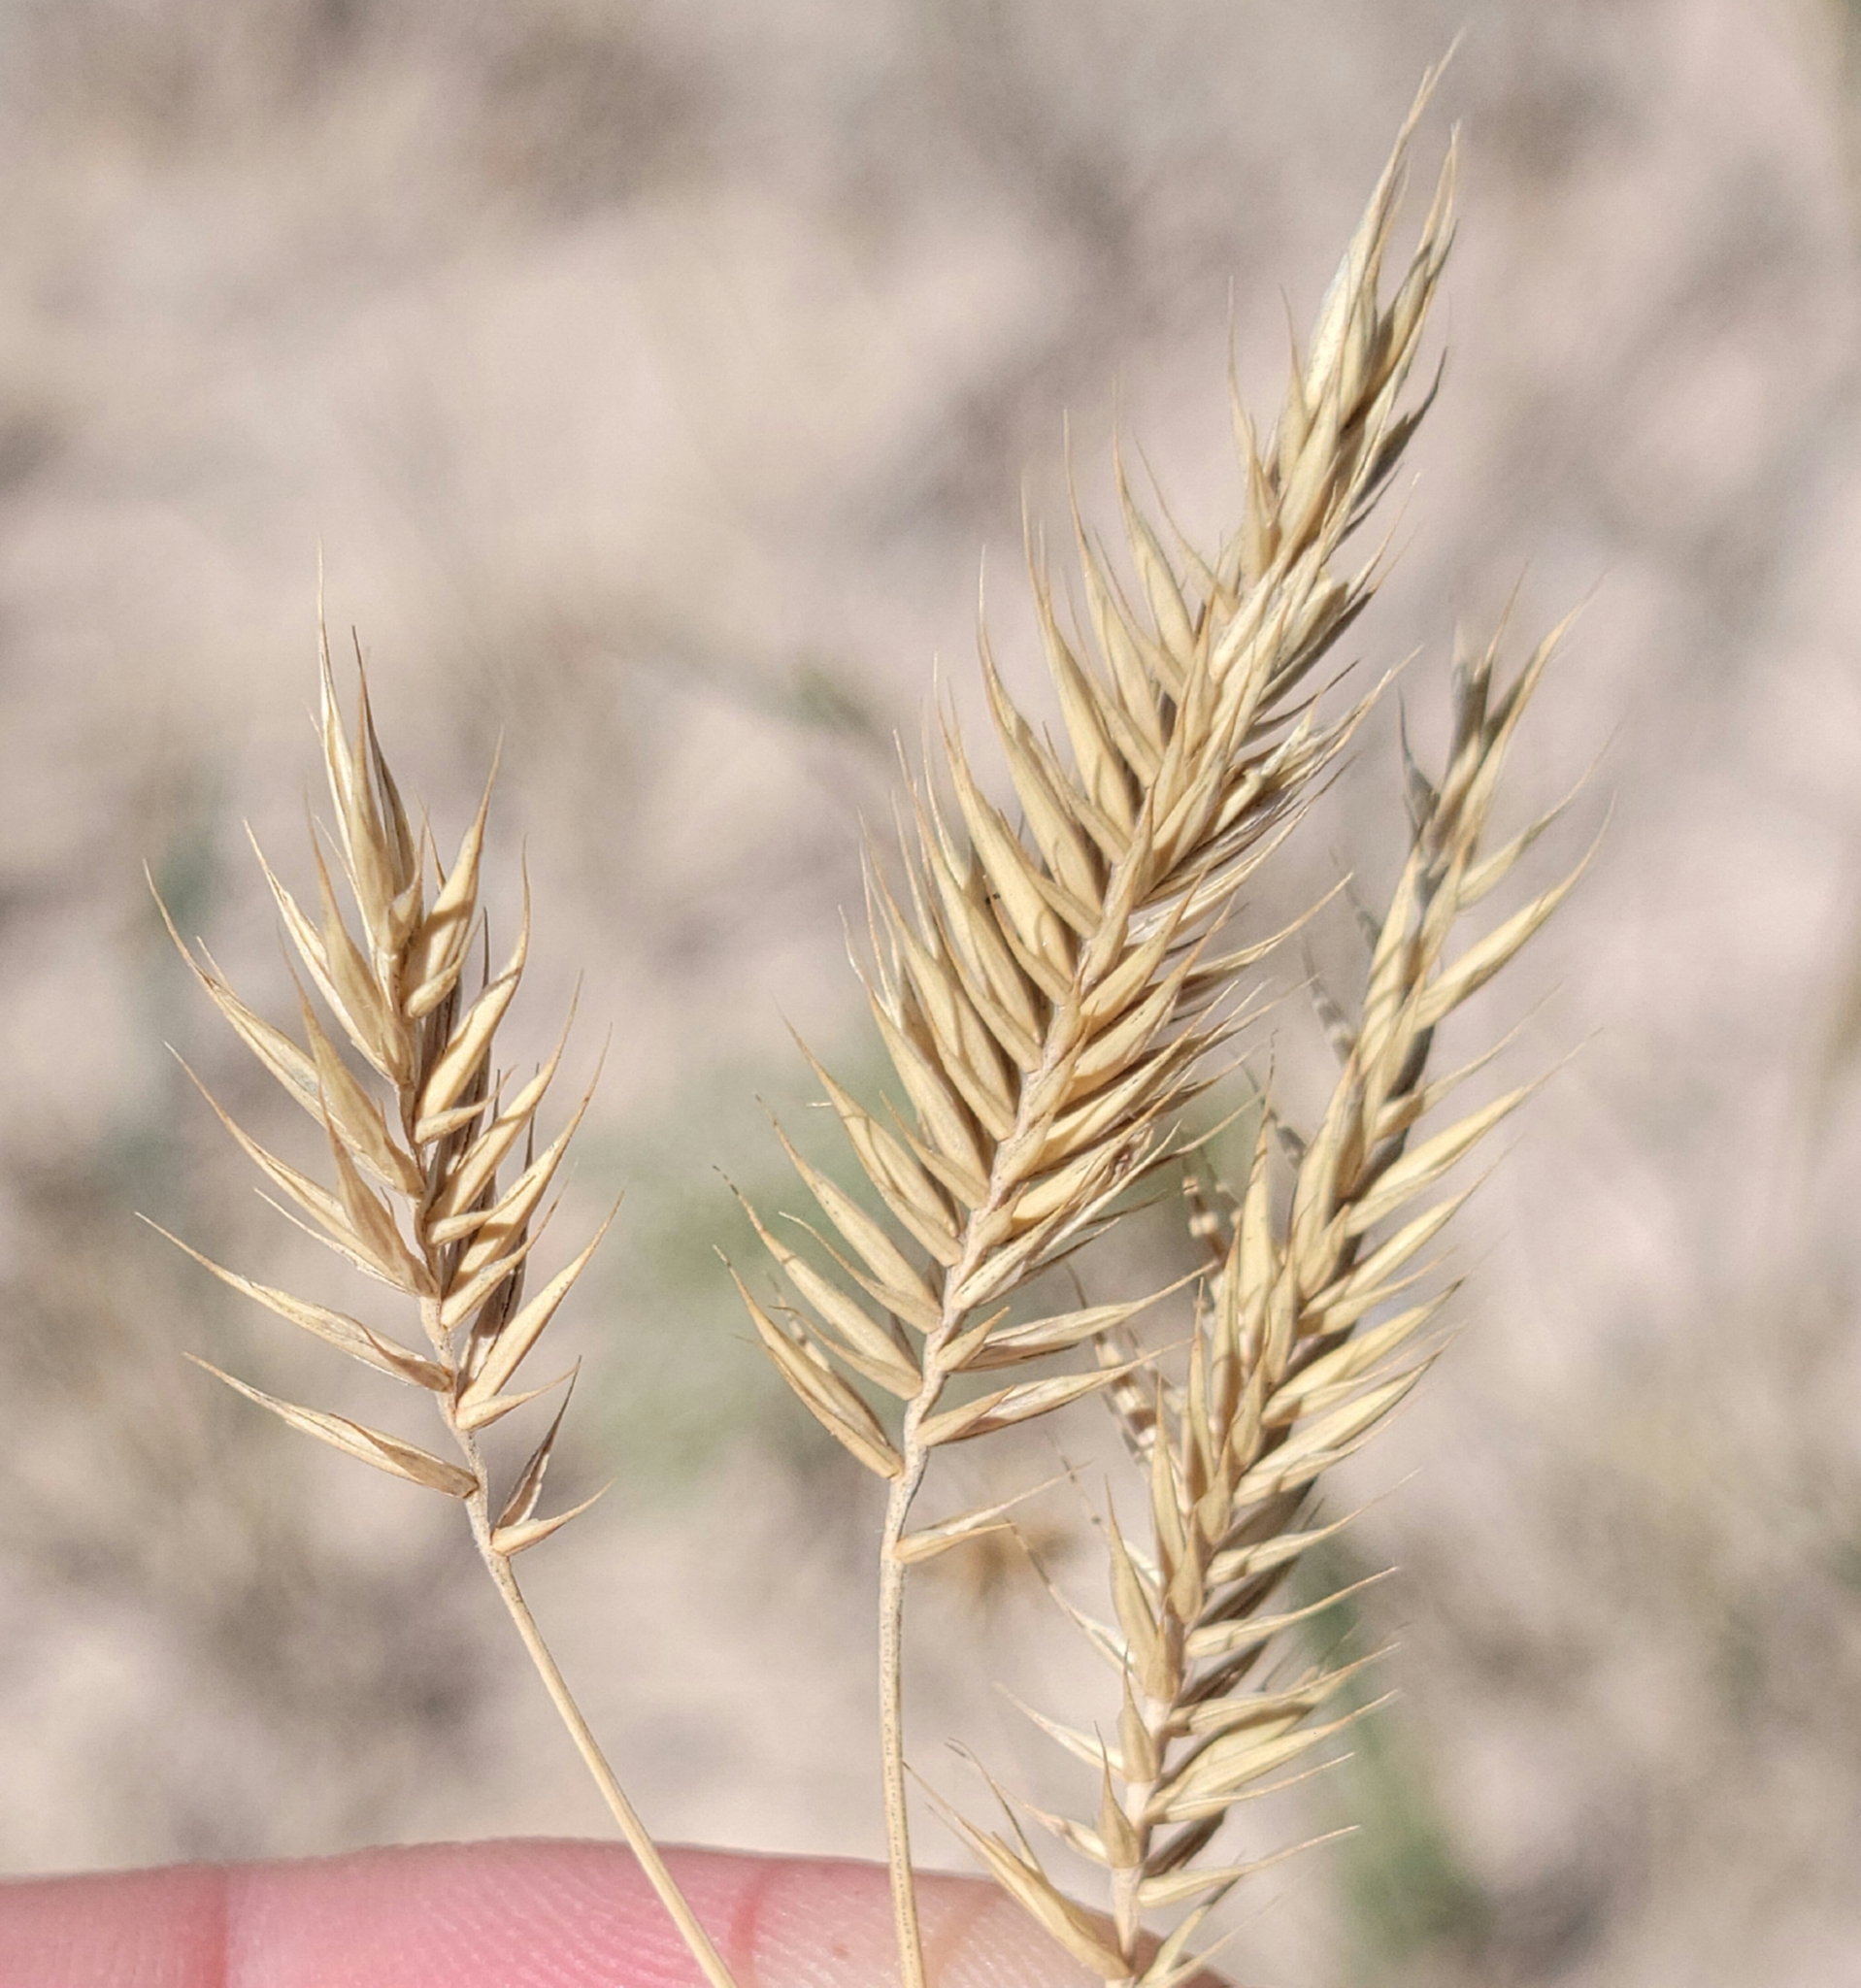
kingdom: Plantae
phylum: Tracheophyta
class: Liliopsida
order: Poales
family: Poaceae
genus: Agropyron
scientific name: Agropyron cristatum
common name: Crested wheatgrass
